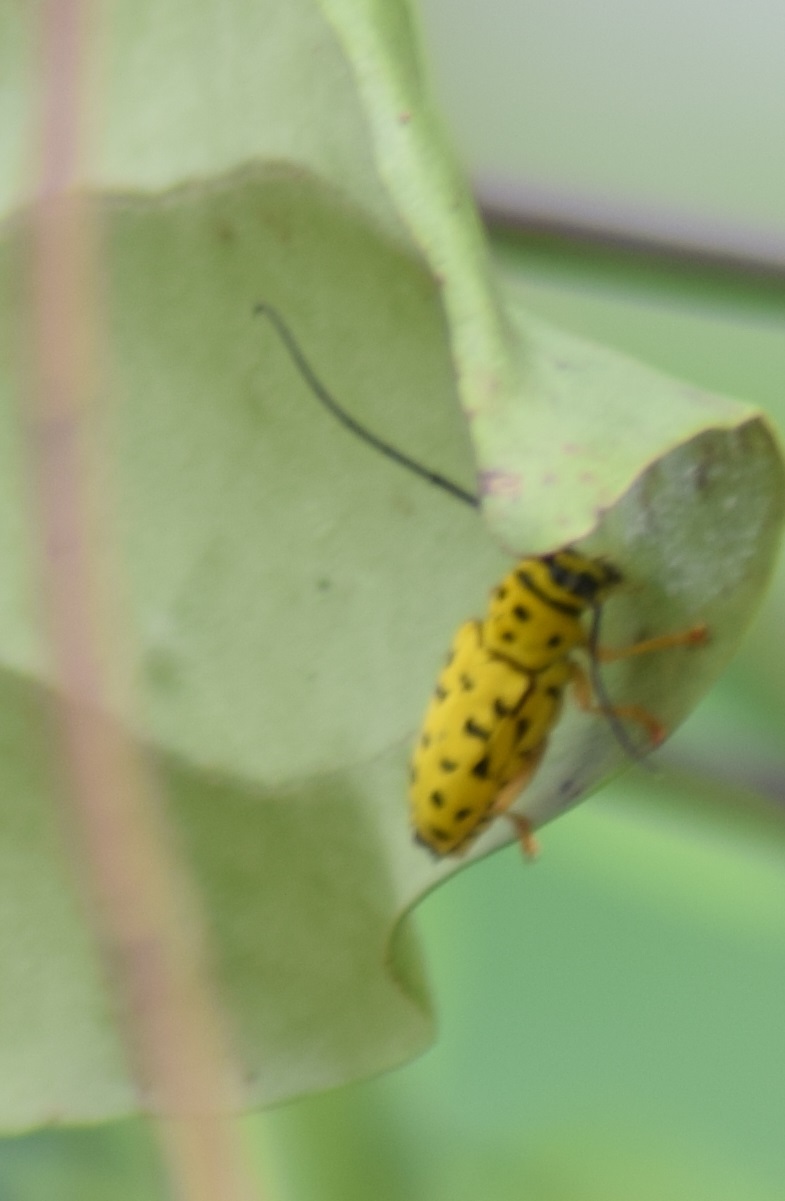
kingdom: Animalia
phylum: Arthropoda
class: Insecta
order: Coleoptera
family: Cerambycidae
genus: Glenea
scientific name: Glenea multiguttata
